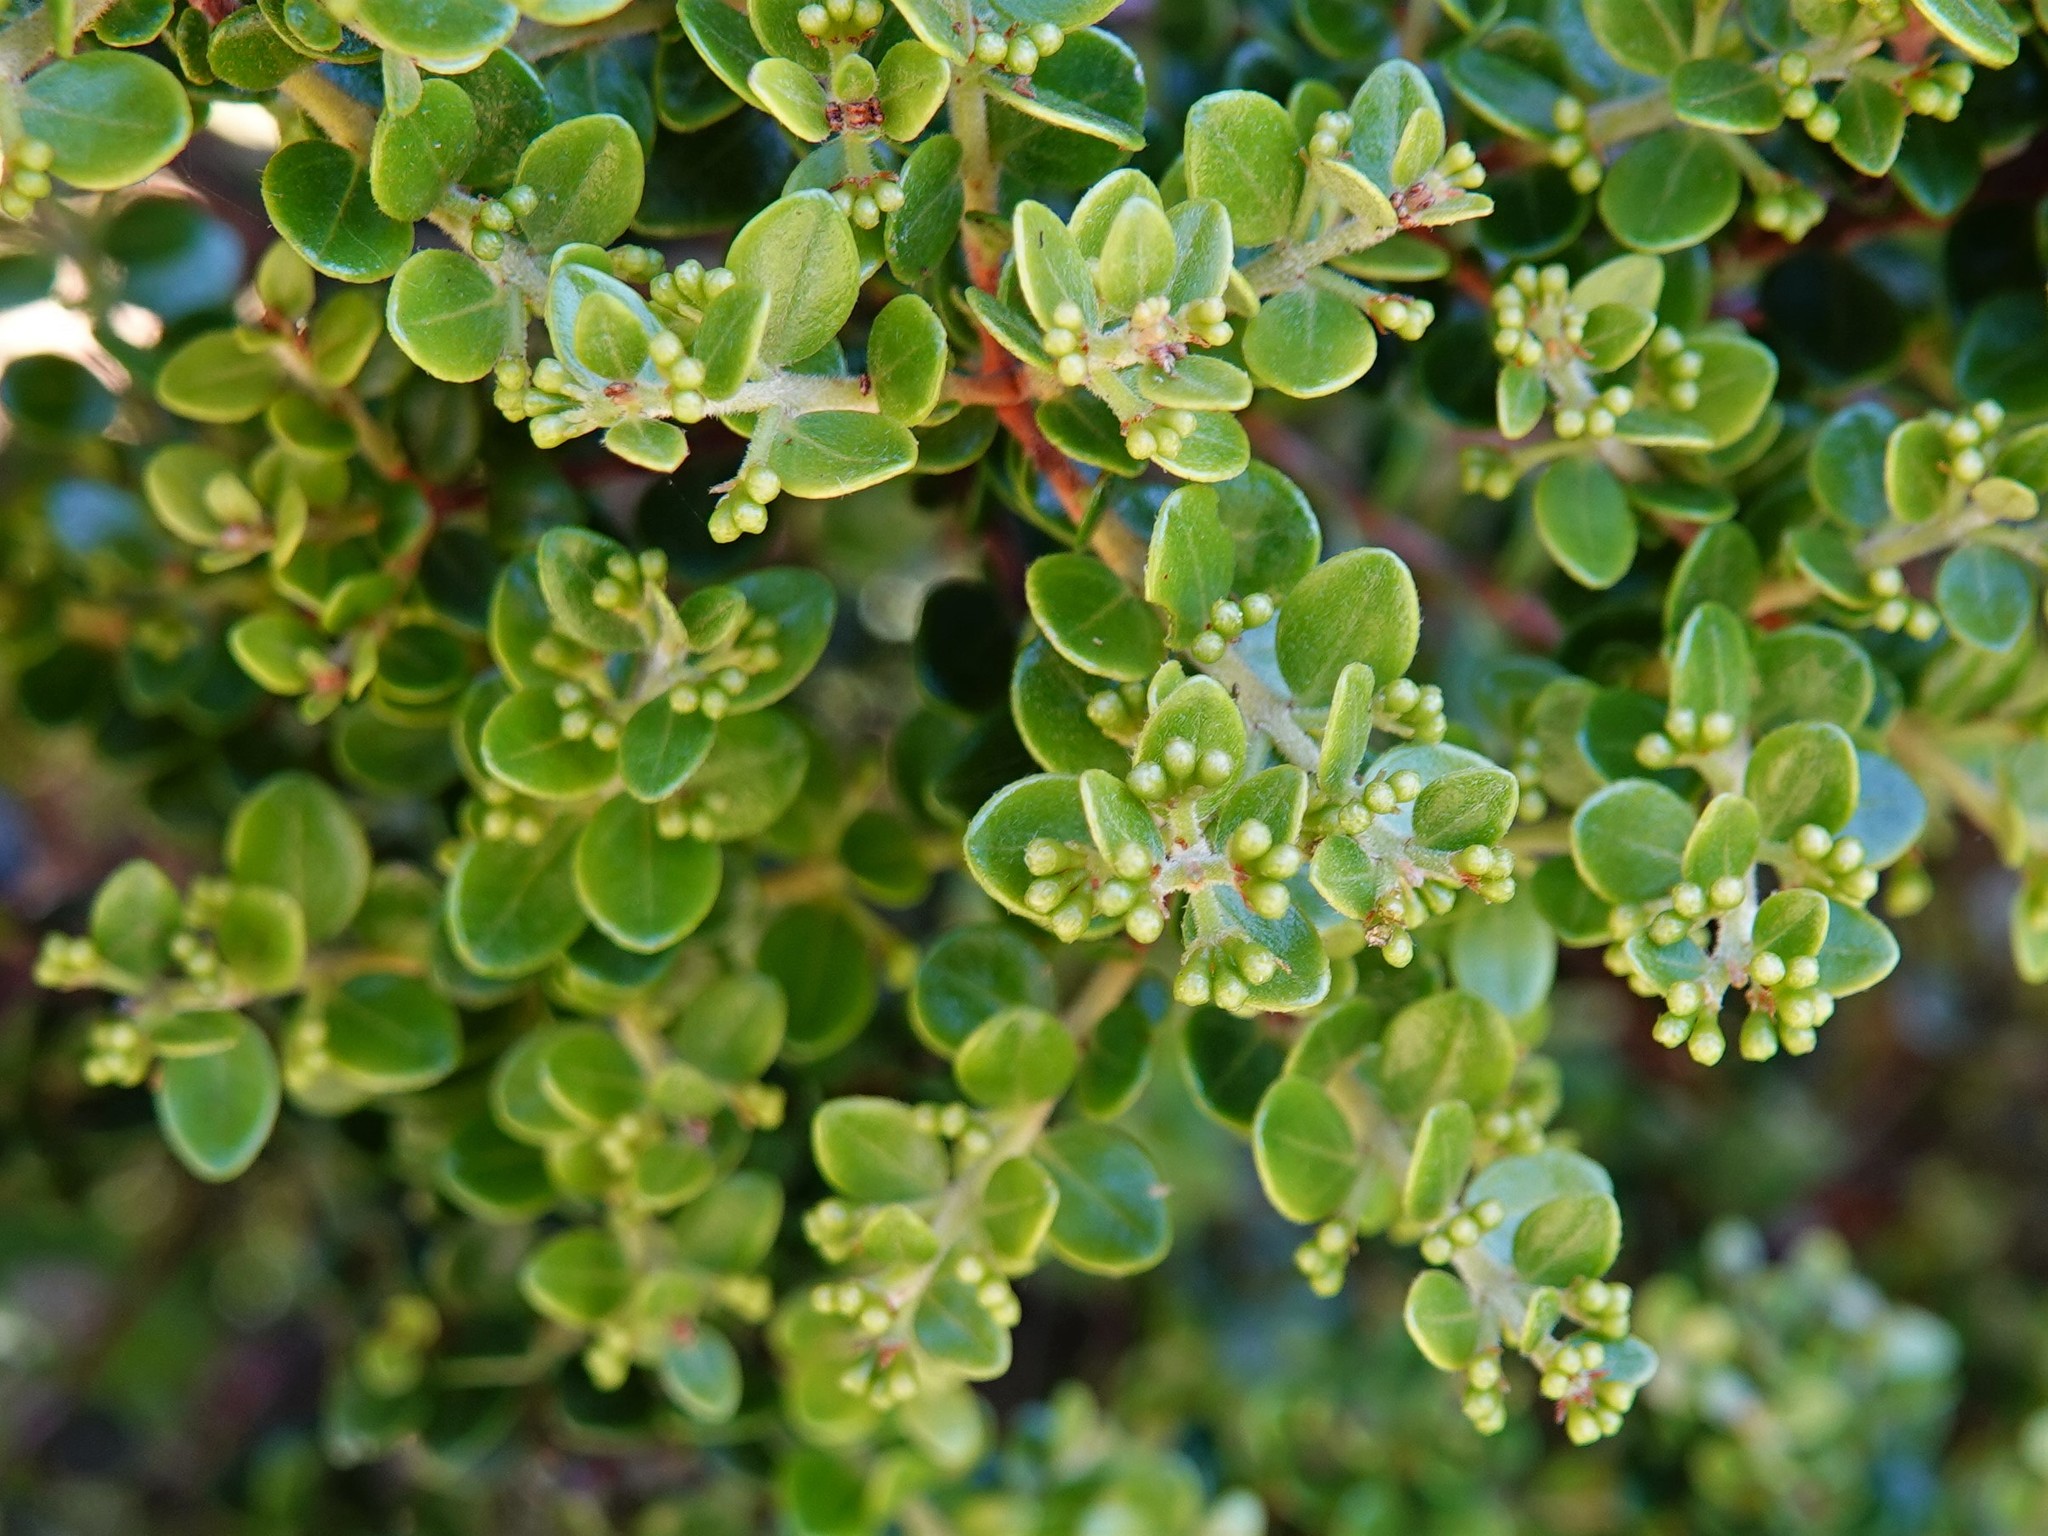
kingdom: Plantae
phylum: Tracheophyta
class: Magnoliopsida
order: Myrtales
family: Myrtaceae
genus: Metrosideros
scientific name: Metrosideros perforata
